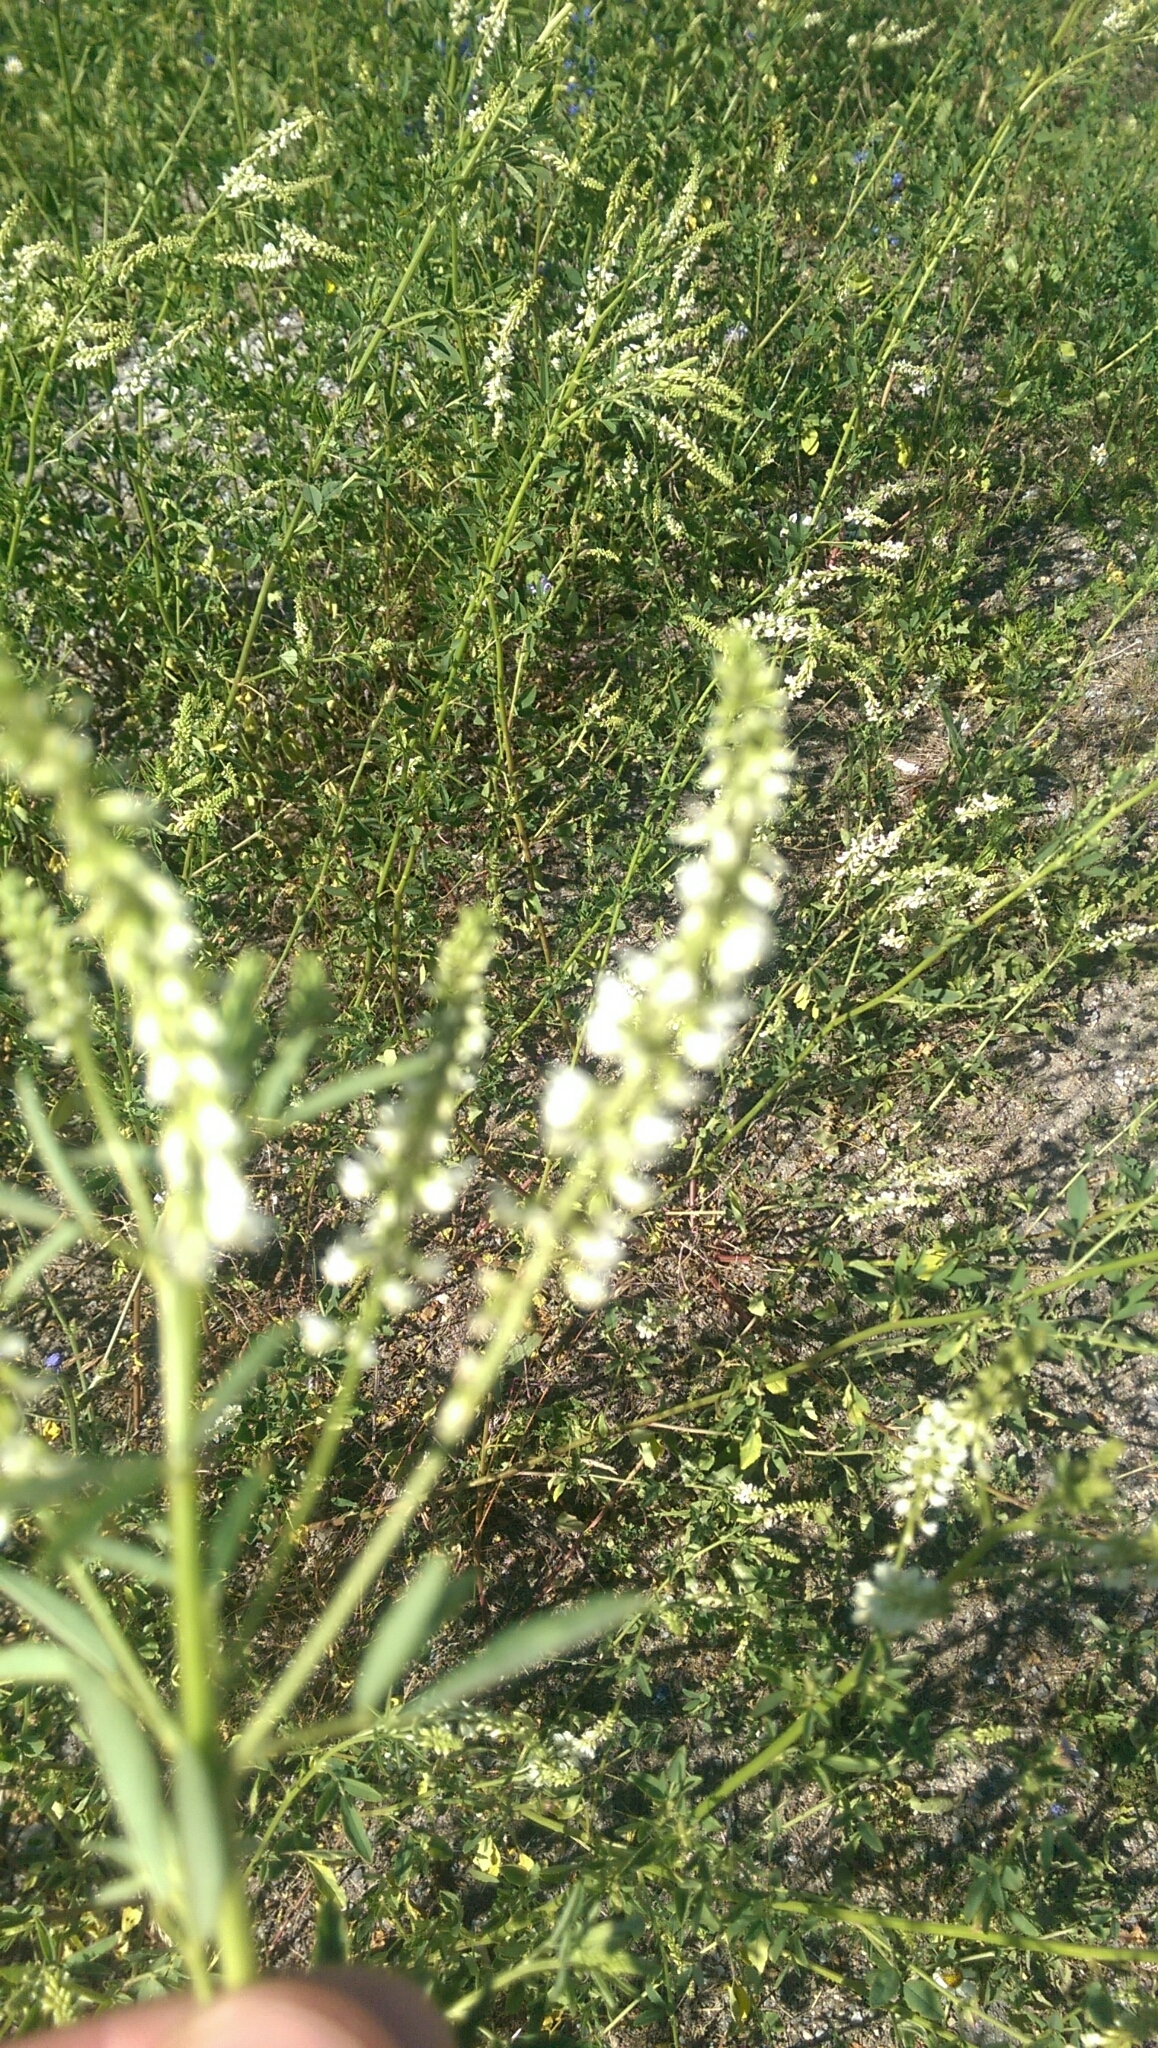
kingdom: Plantae
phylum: Tracheophyta
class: Magnoliopsida
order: Fabales
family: Fabaceae
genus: Melilotus
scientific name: Melilotus albus
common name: White melilot
